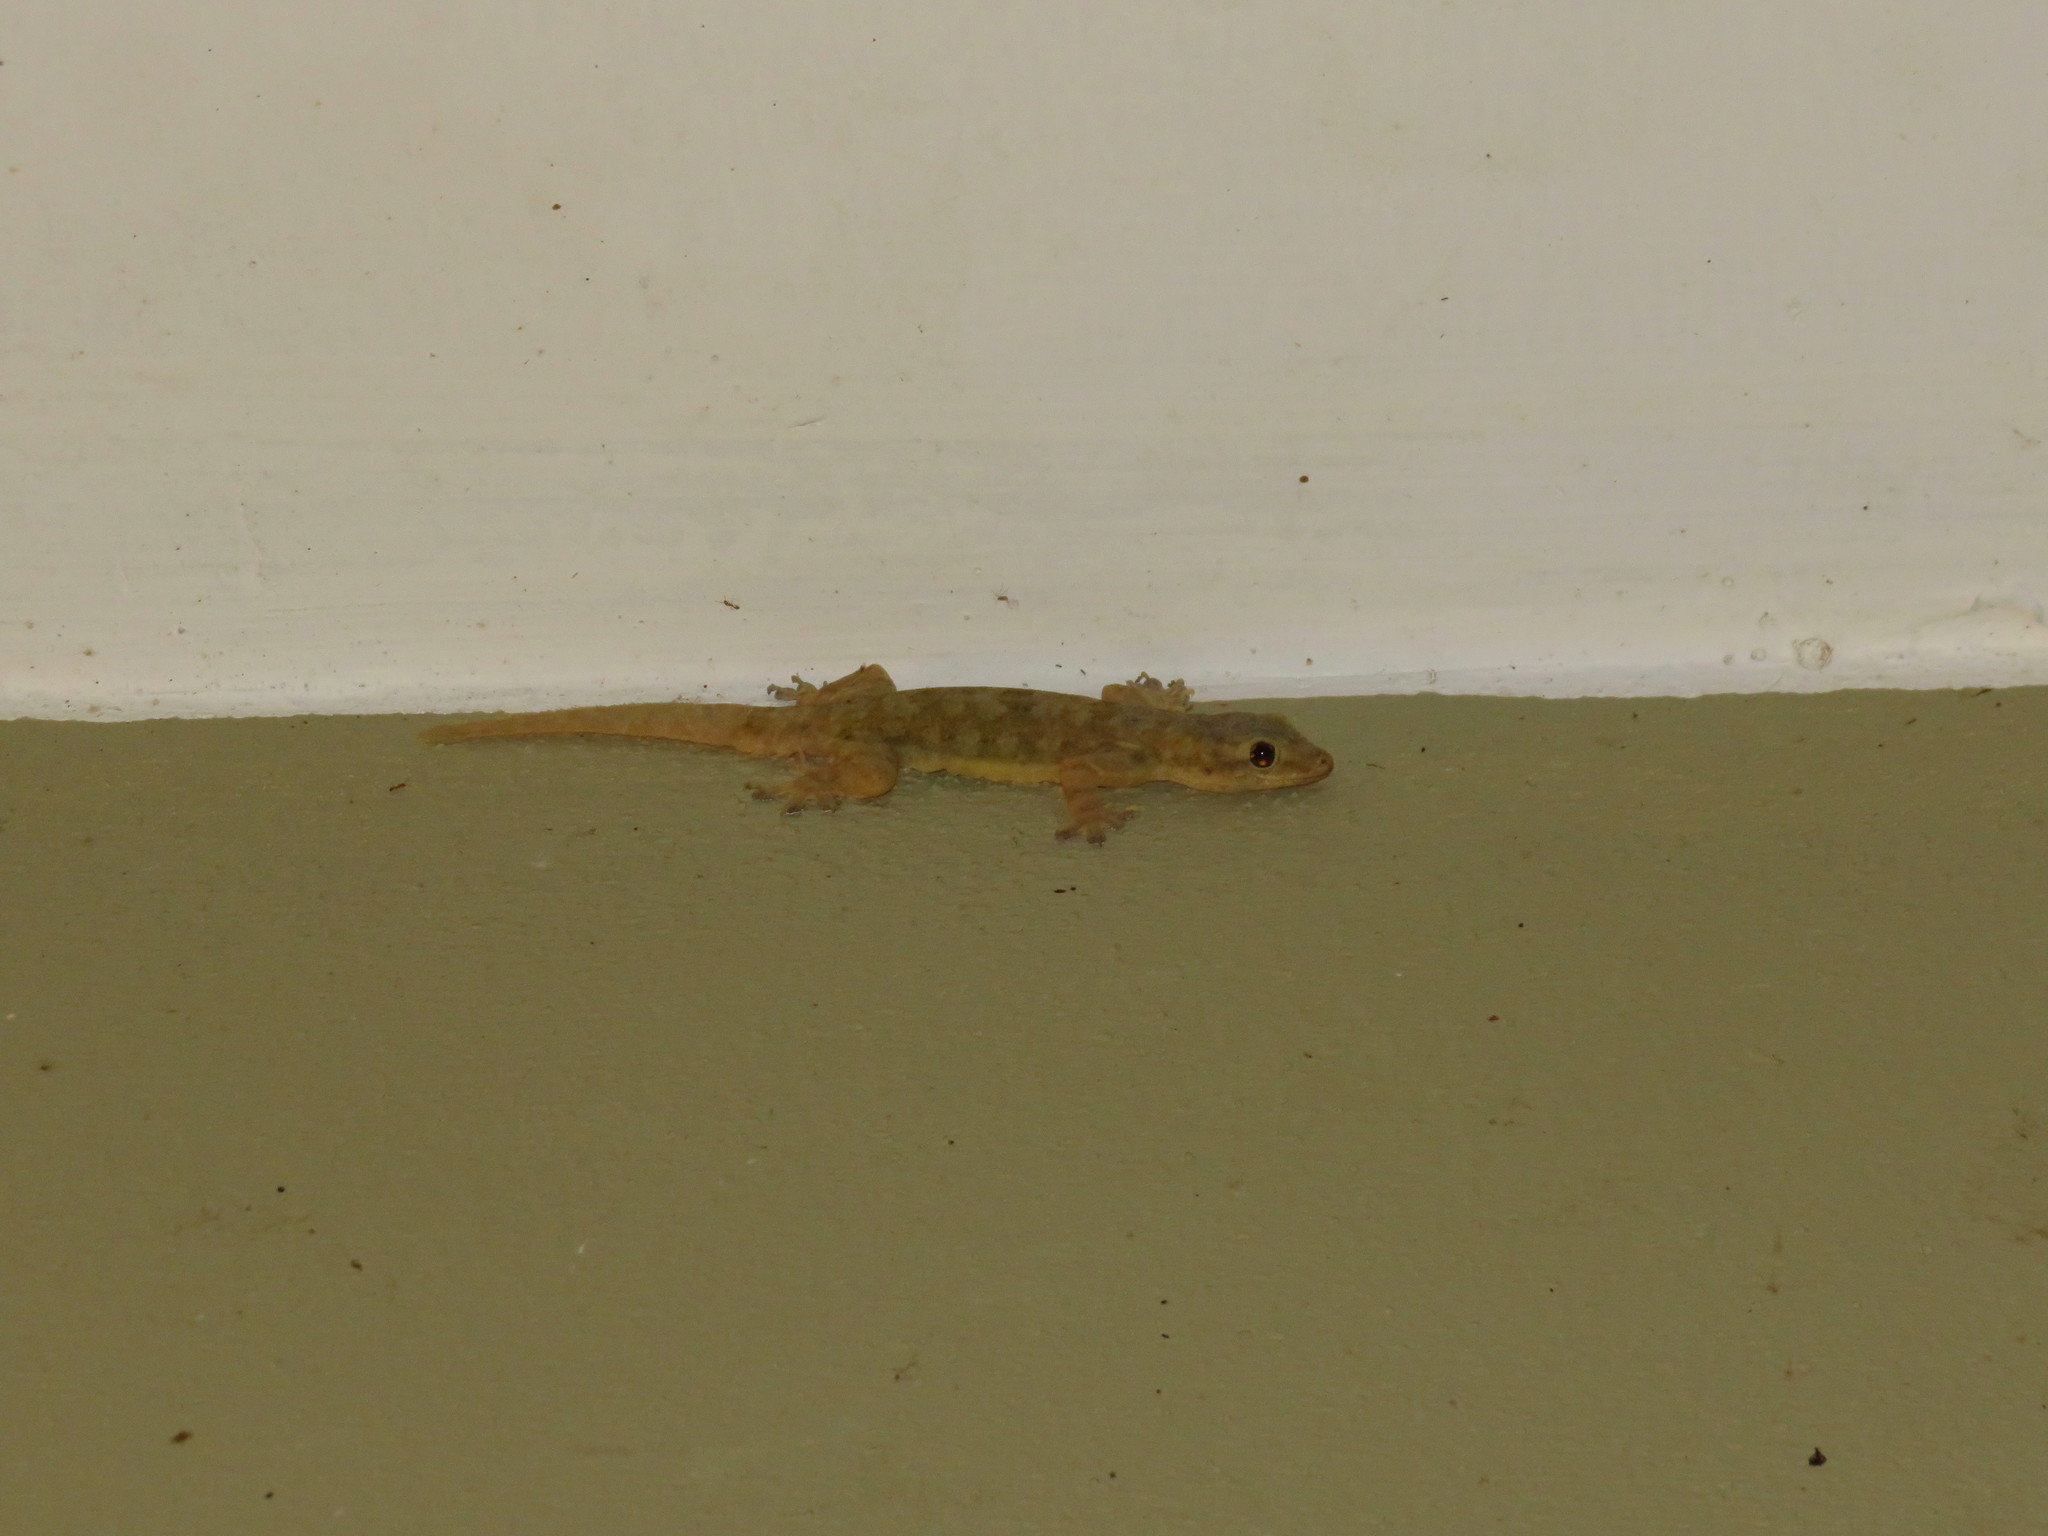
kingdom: Animalia
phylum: Chordata
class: Squamata
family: Gekkonidae
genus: Hemidactylus
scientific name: Hemidactylus platyurus
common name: Flat-tailed house gecko
